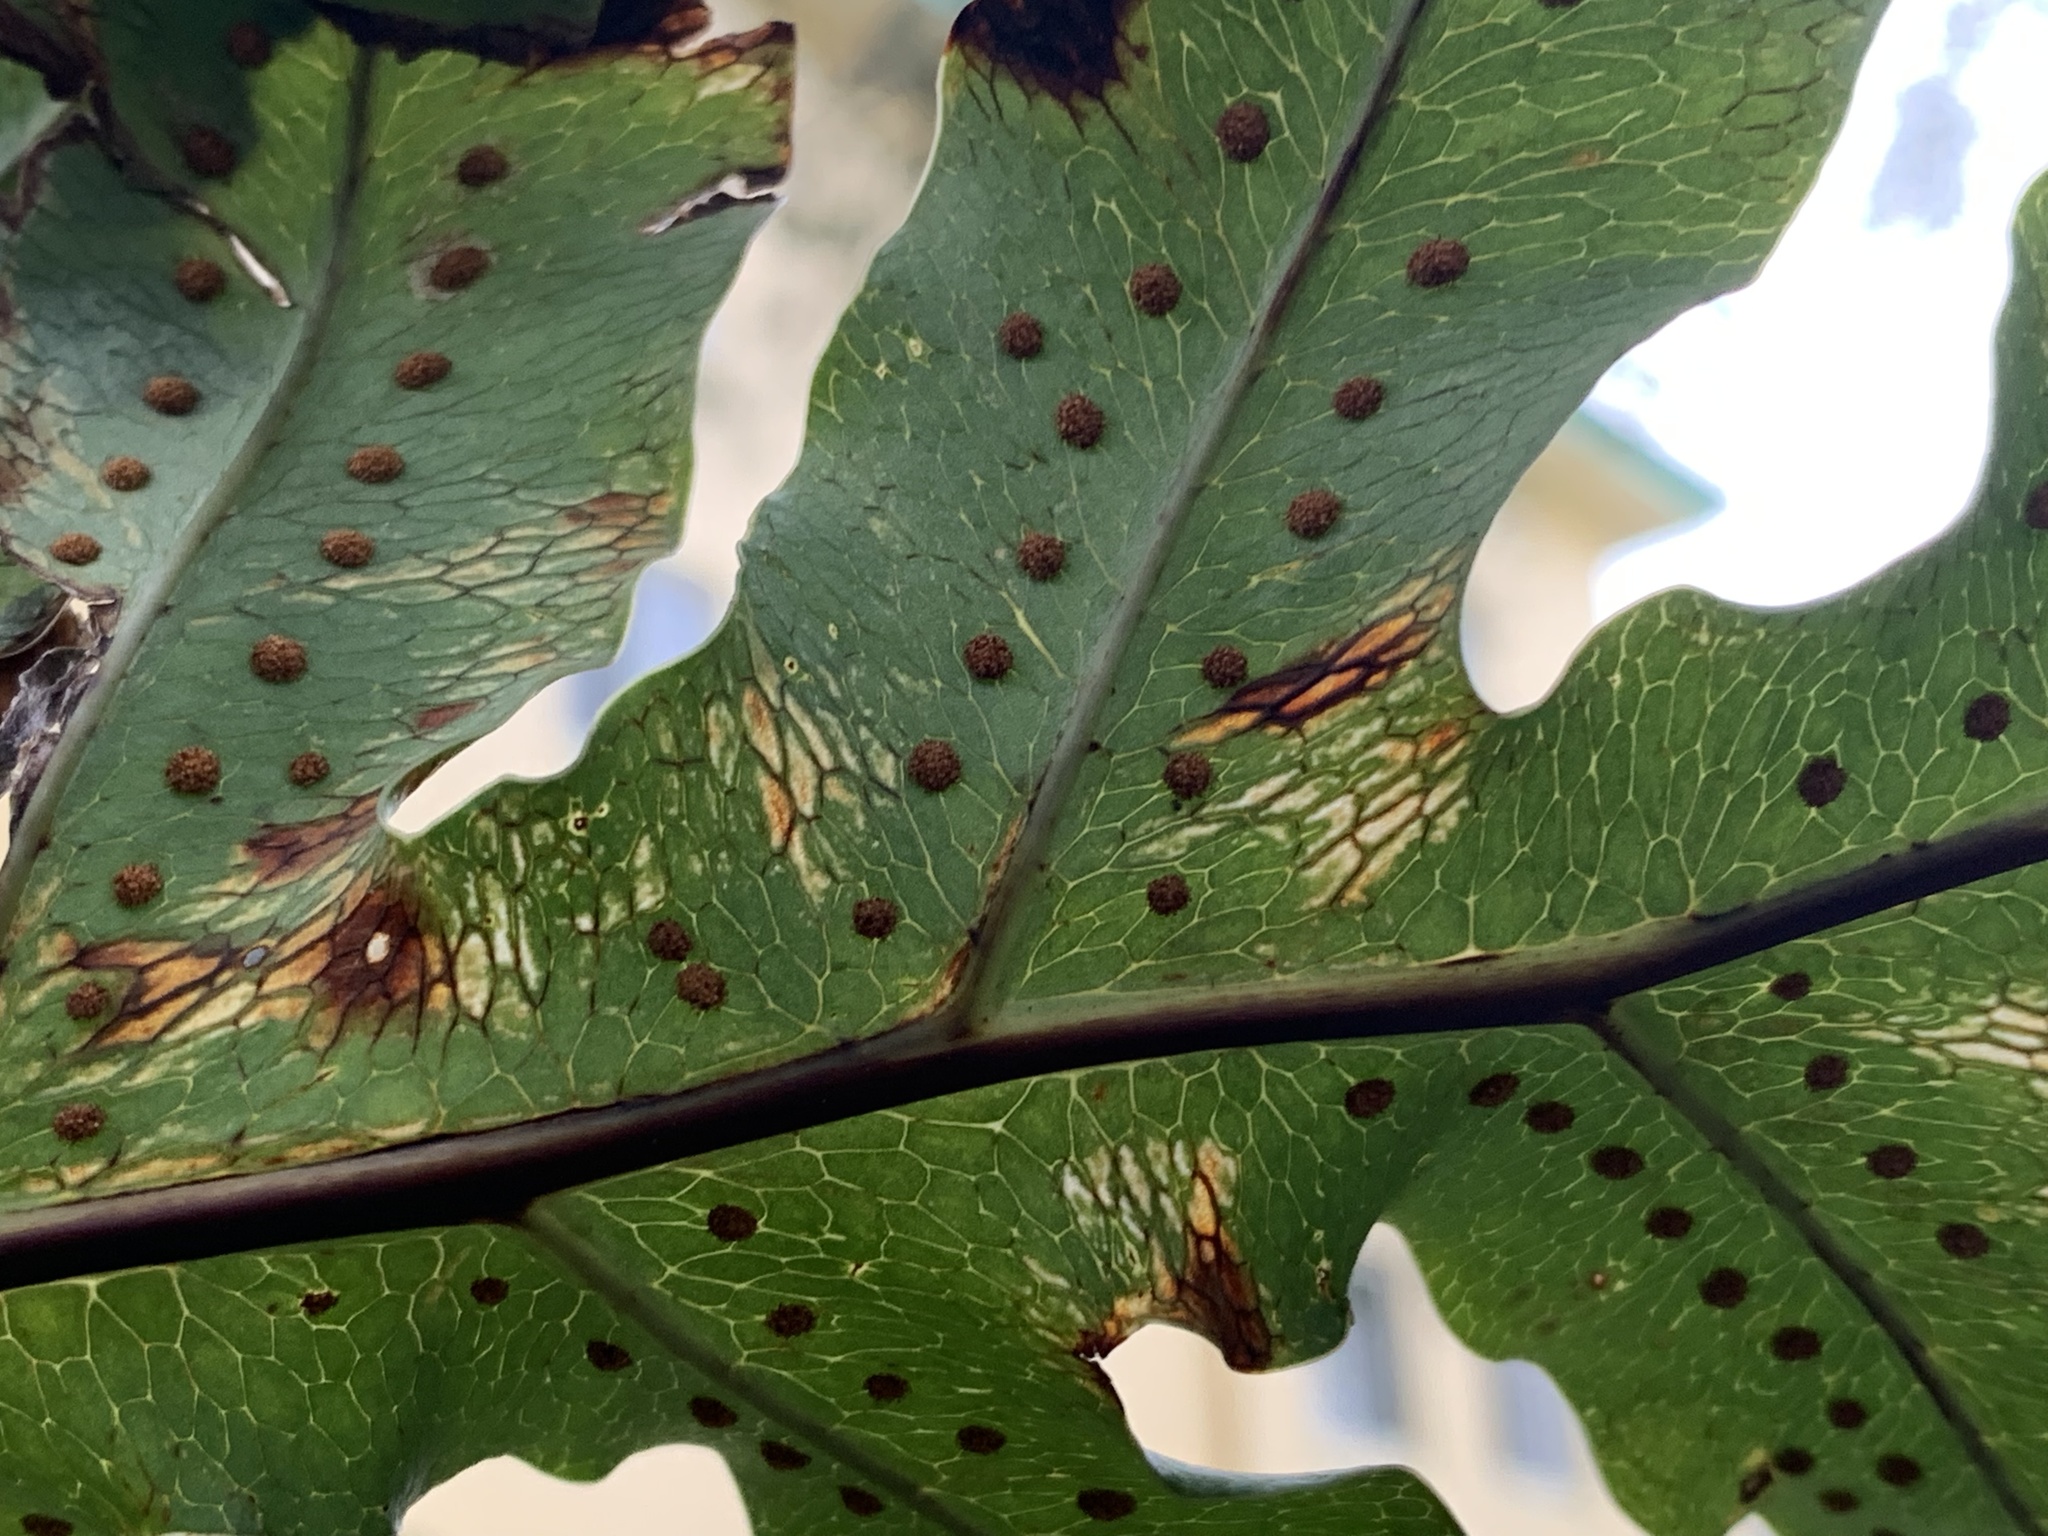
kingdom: Plantae
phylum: Tracheophyta
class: Polypodiopsida
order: Polypodiales
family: Polypodiaceae
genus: Phlebodium
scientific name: Phlebodium aureum
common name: Gold-foot fern
